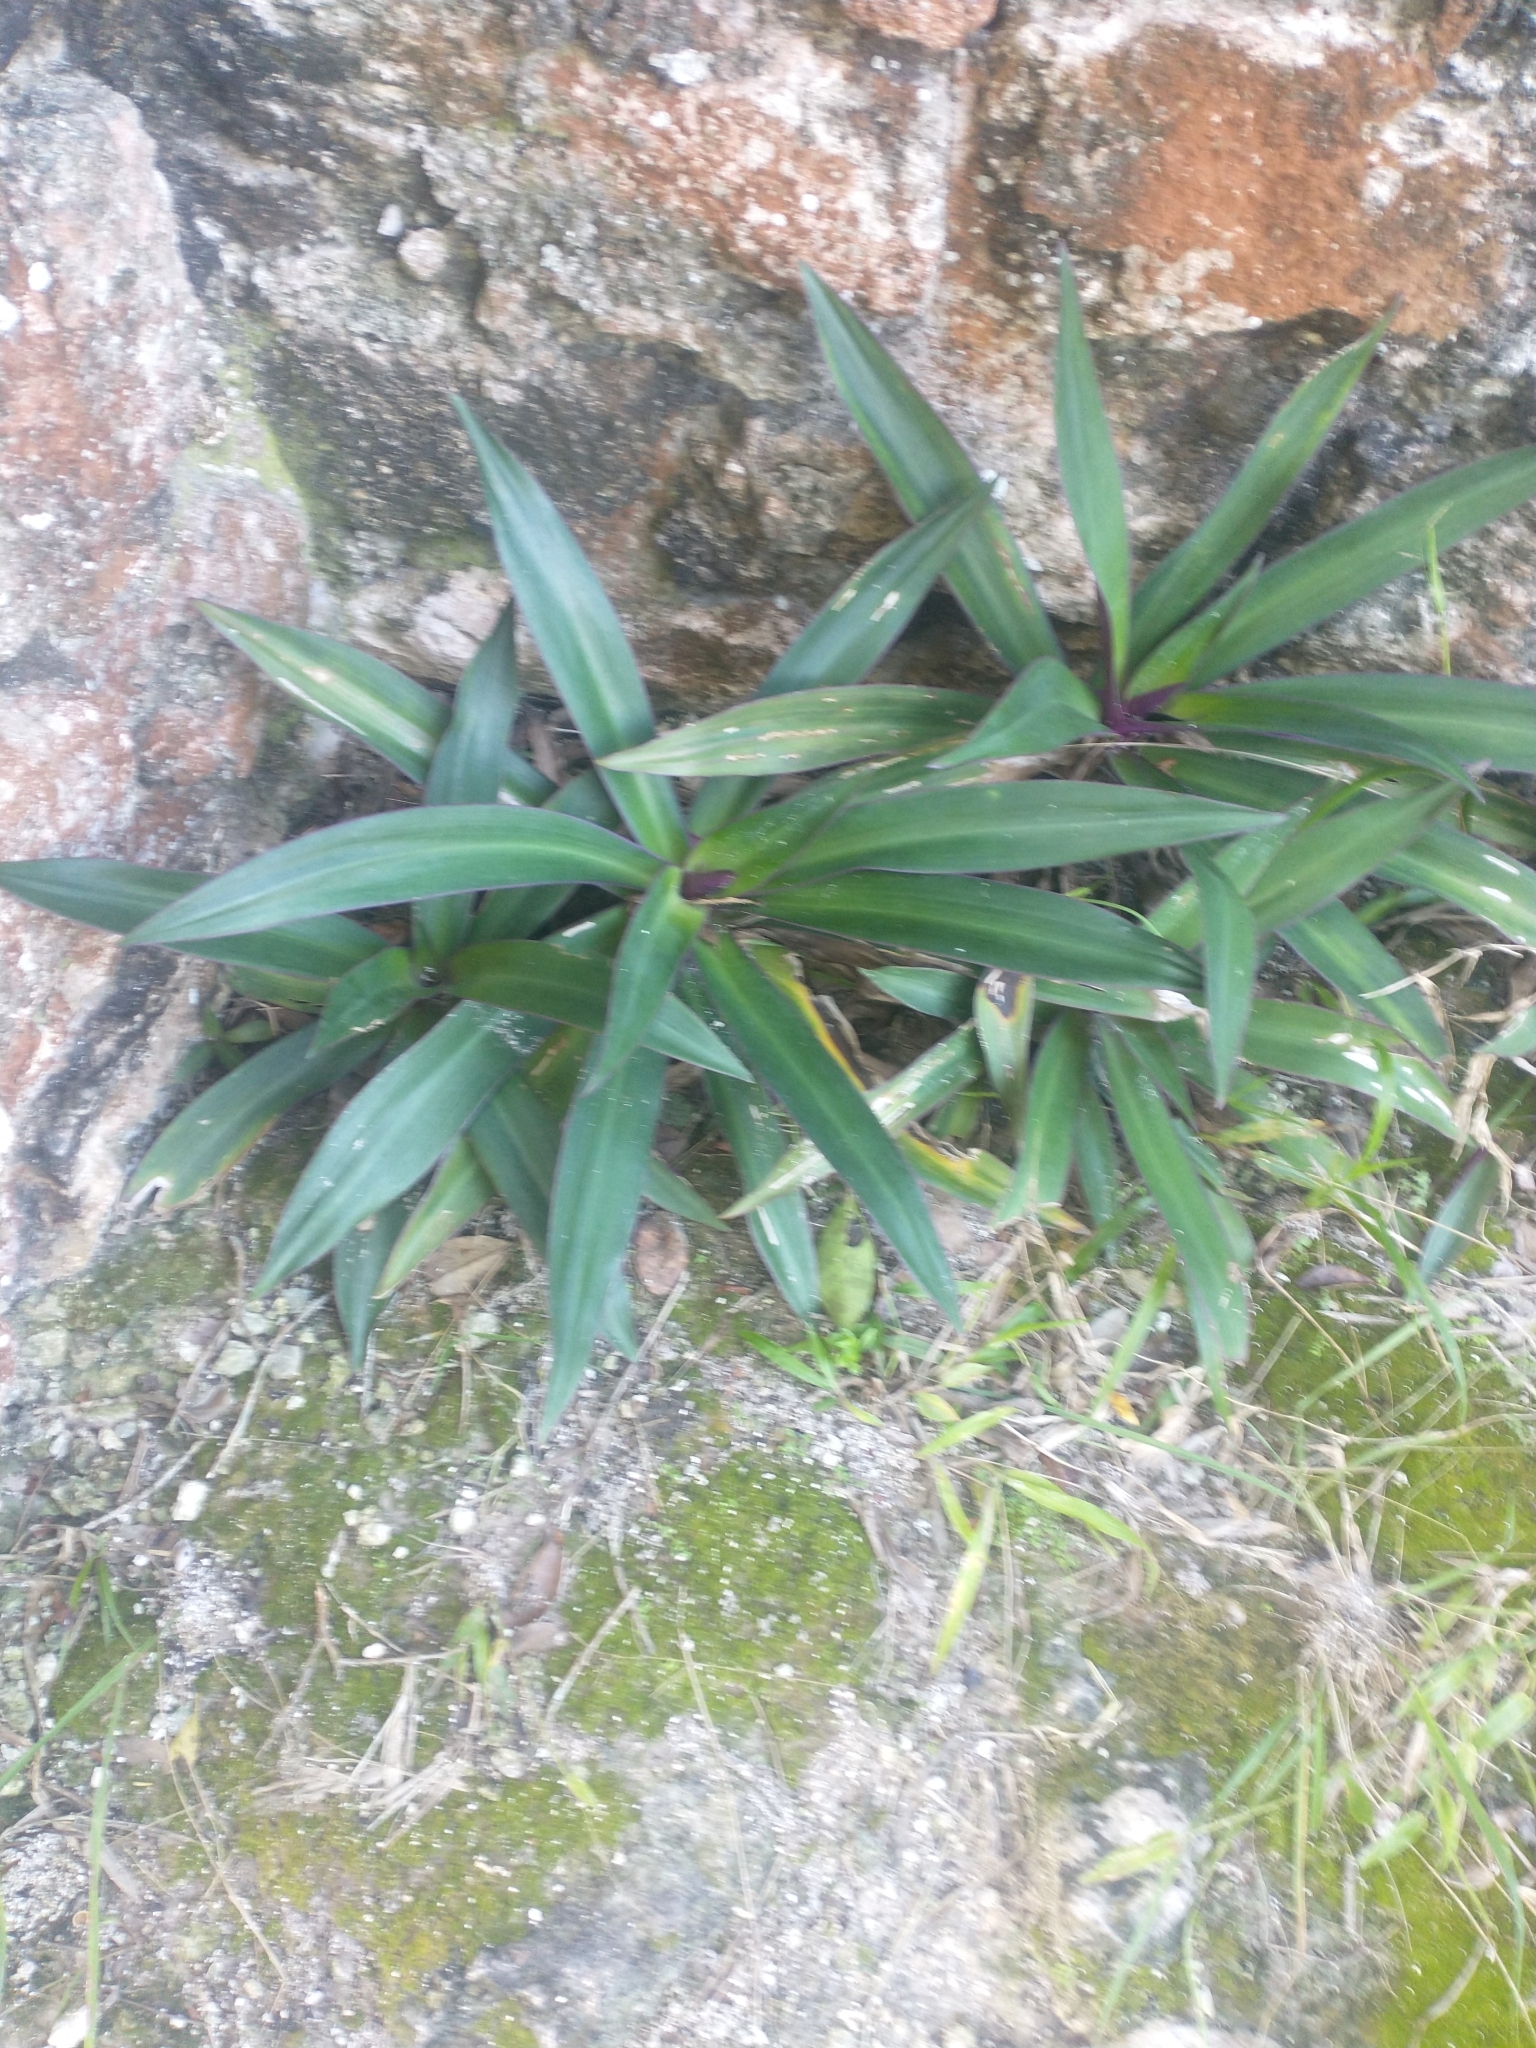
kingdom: Plantae
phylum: Tracheophyta
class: Liliopsida
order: Commelinales
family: Commelinaceae
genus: Tradescantia
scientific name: Tradescantia spathacea
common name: Boatlily
